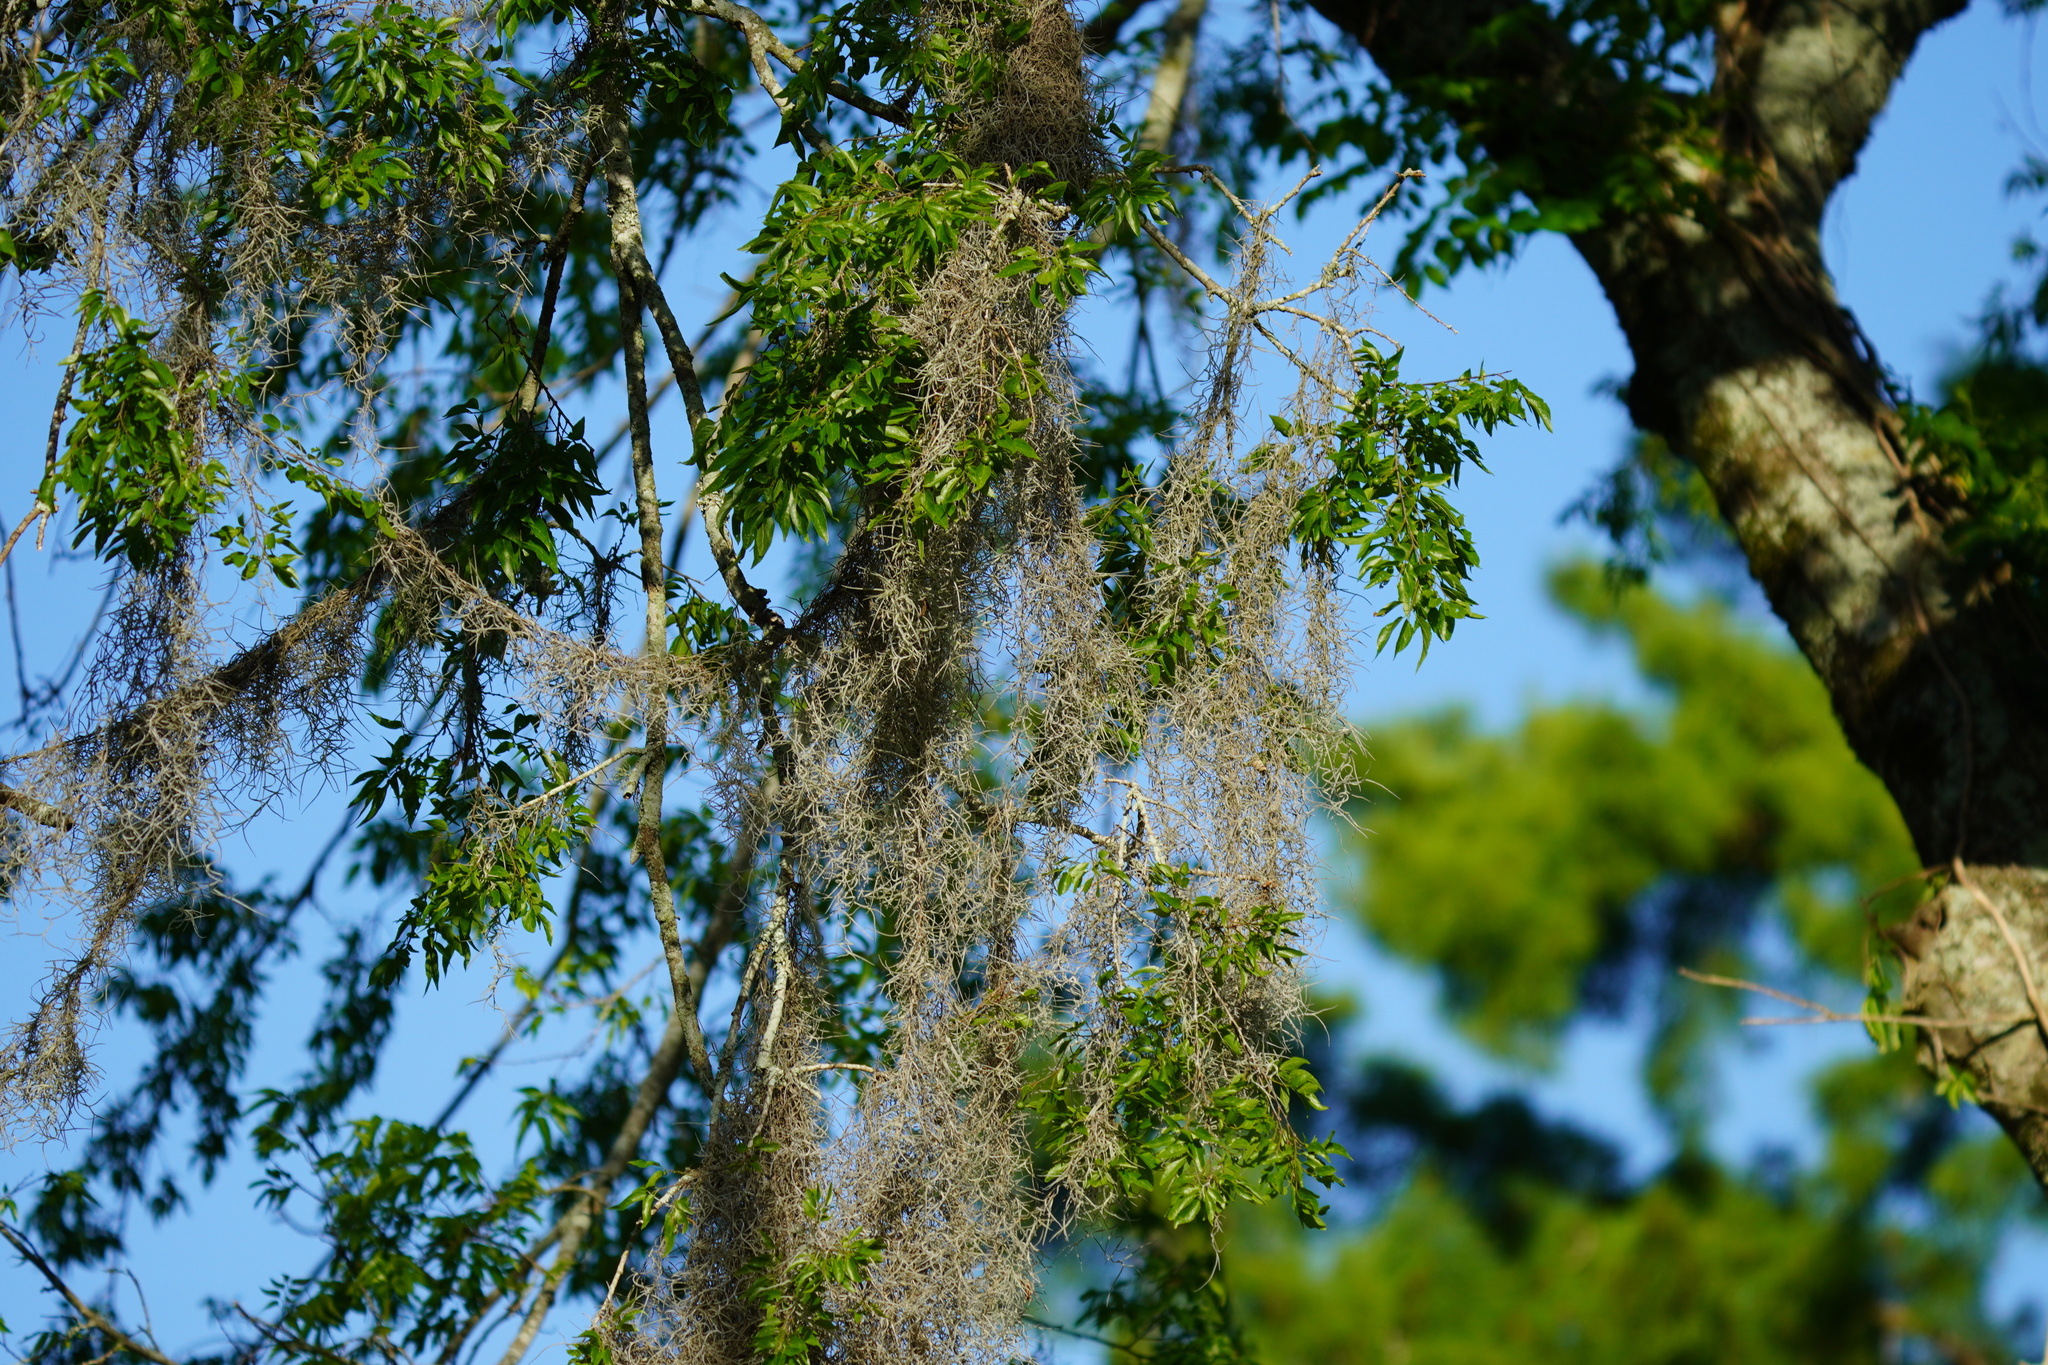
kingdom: Plantae
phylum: Tracheophyta
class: Liliopsida
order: Poales
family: Bromeliaceae
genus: Tillandsia
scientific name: Tillandsia usneoides
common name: Spanish moss
